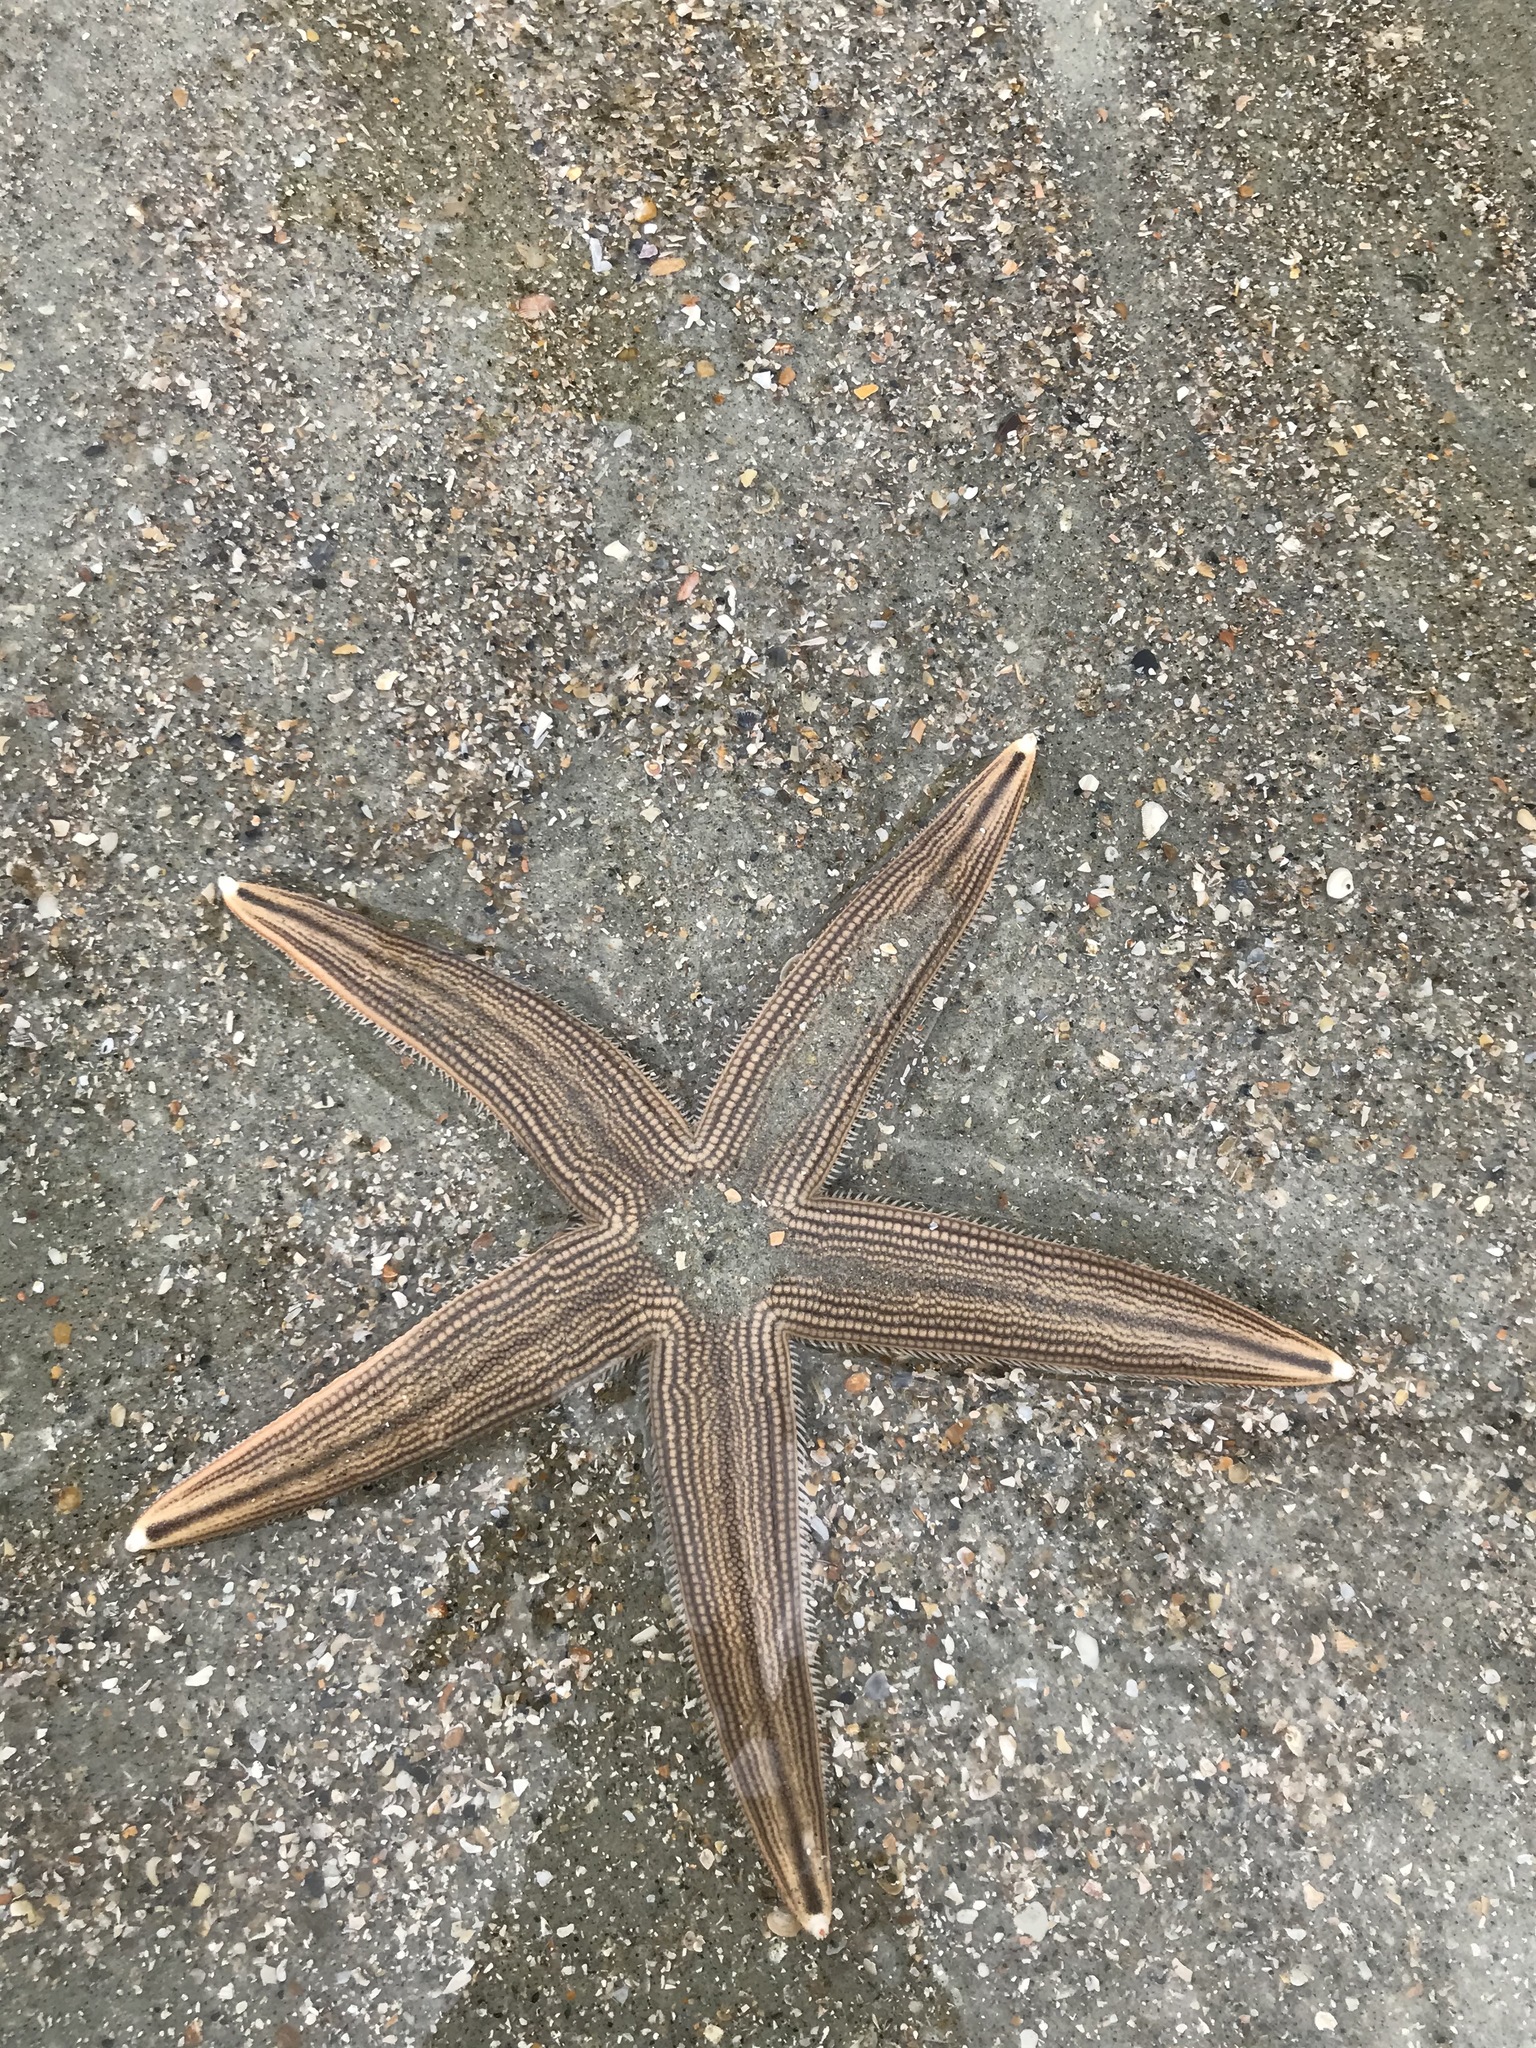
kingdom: Animalia
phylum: Echinodermata
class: Asteroidea
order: Paxillosida
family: Luidiidae
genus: Luidia
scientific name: Luidia clathrata
